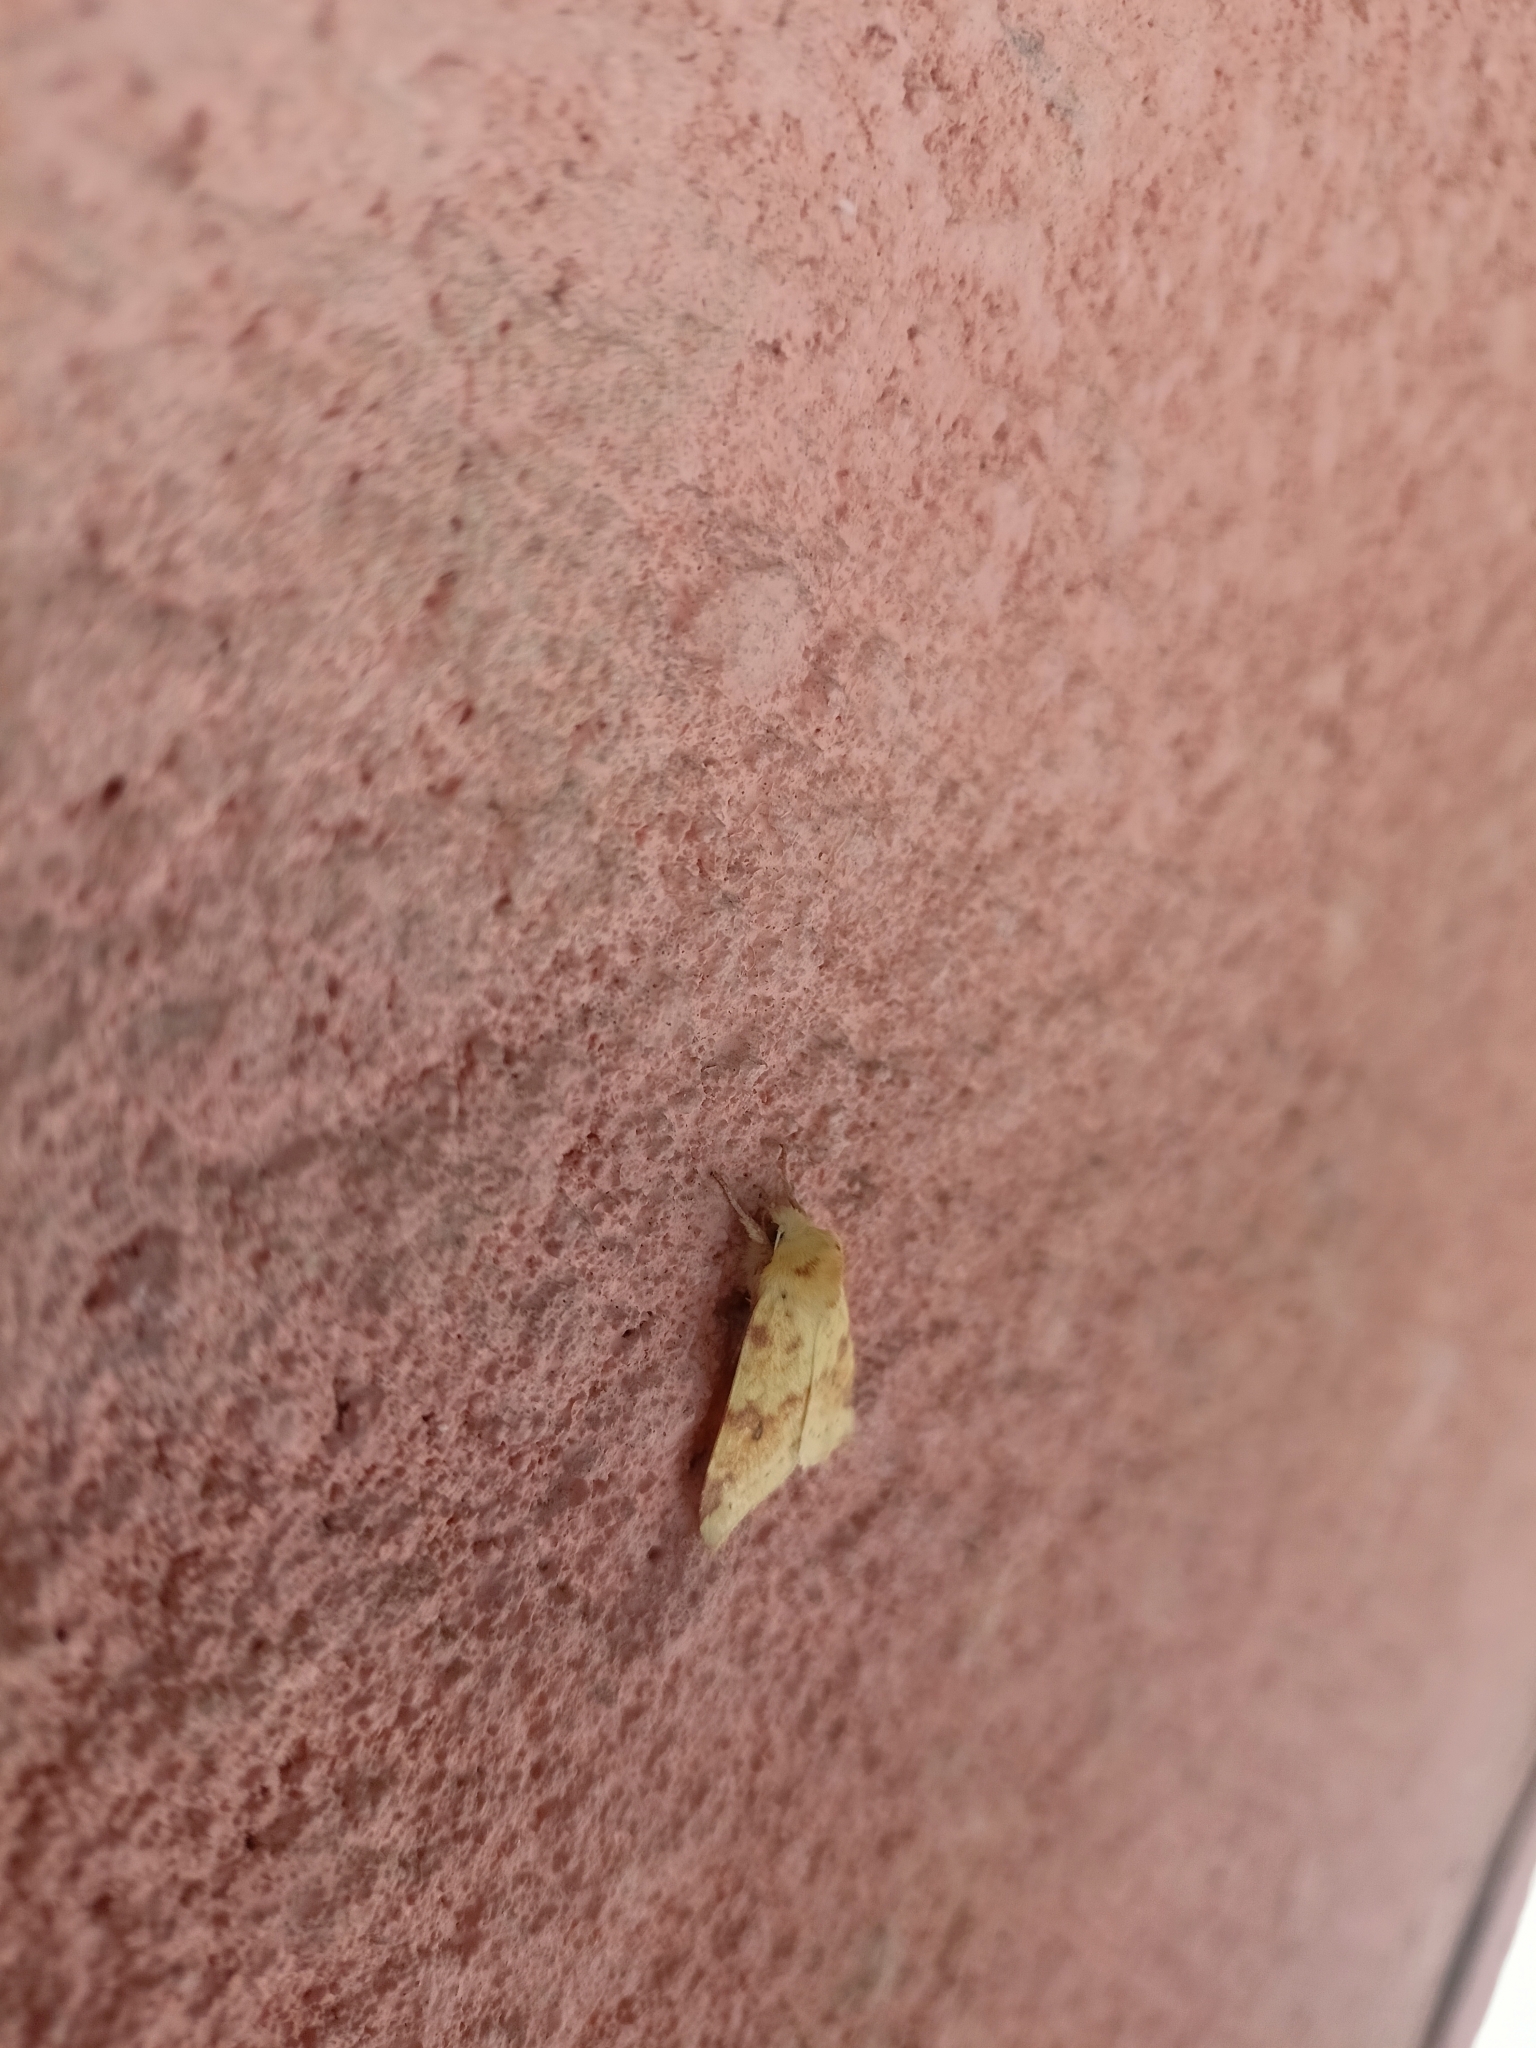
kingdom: Animalia
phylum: Arthropoda
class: Insecta
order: Lepidoptera
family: Noctuidae
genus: Xanthia
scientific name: Xanthia icteritia
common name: The sallow
